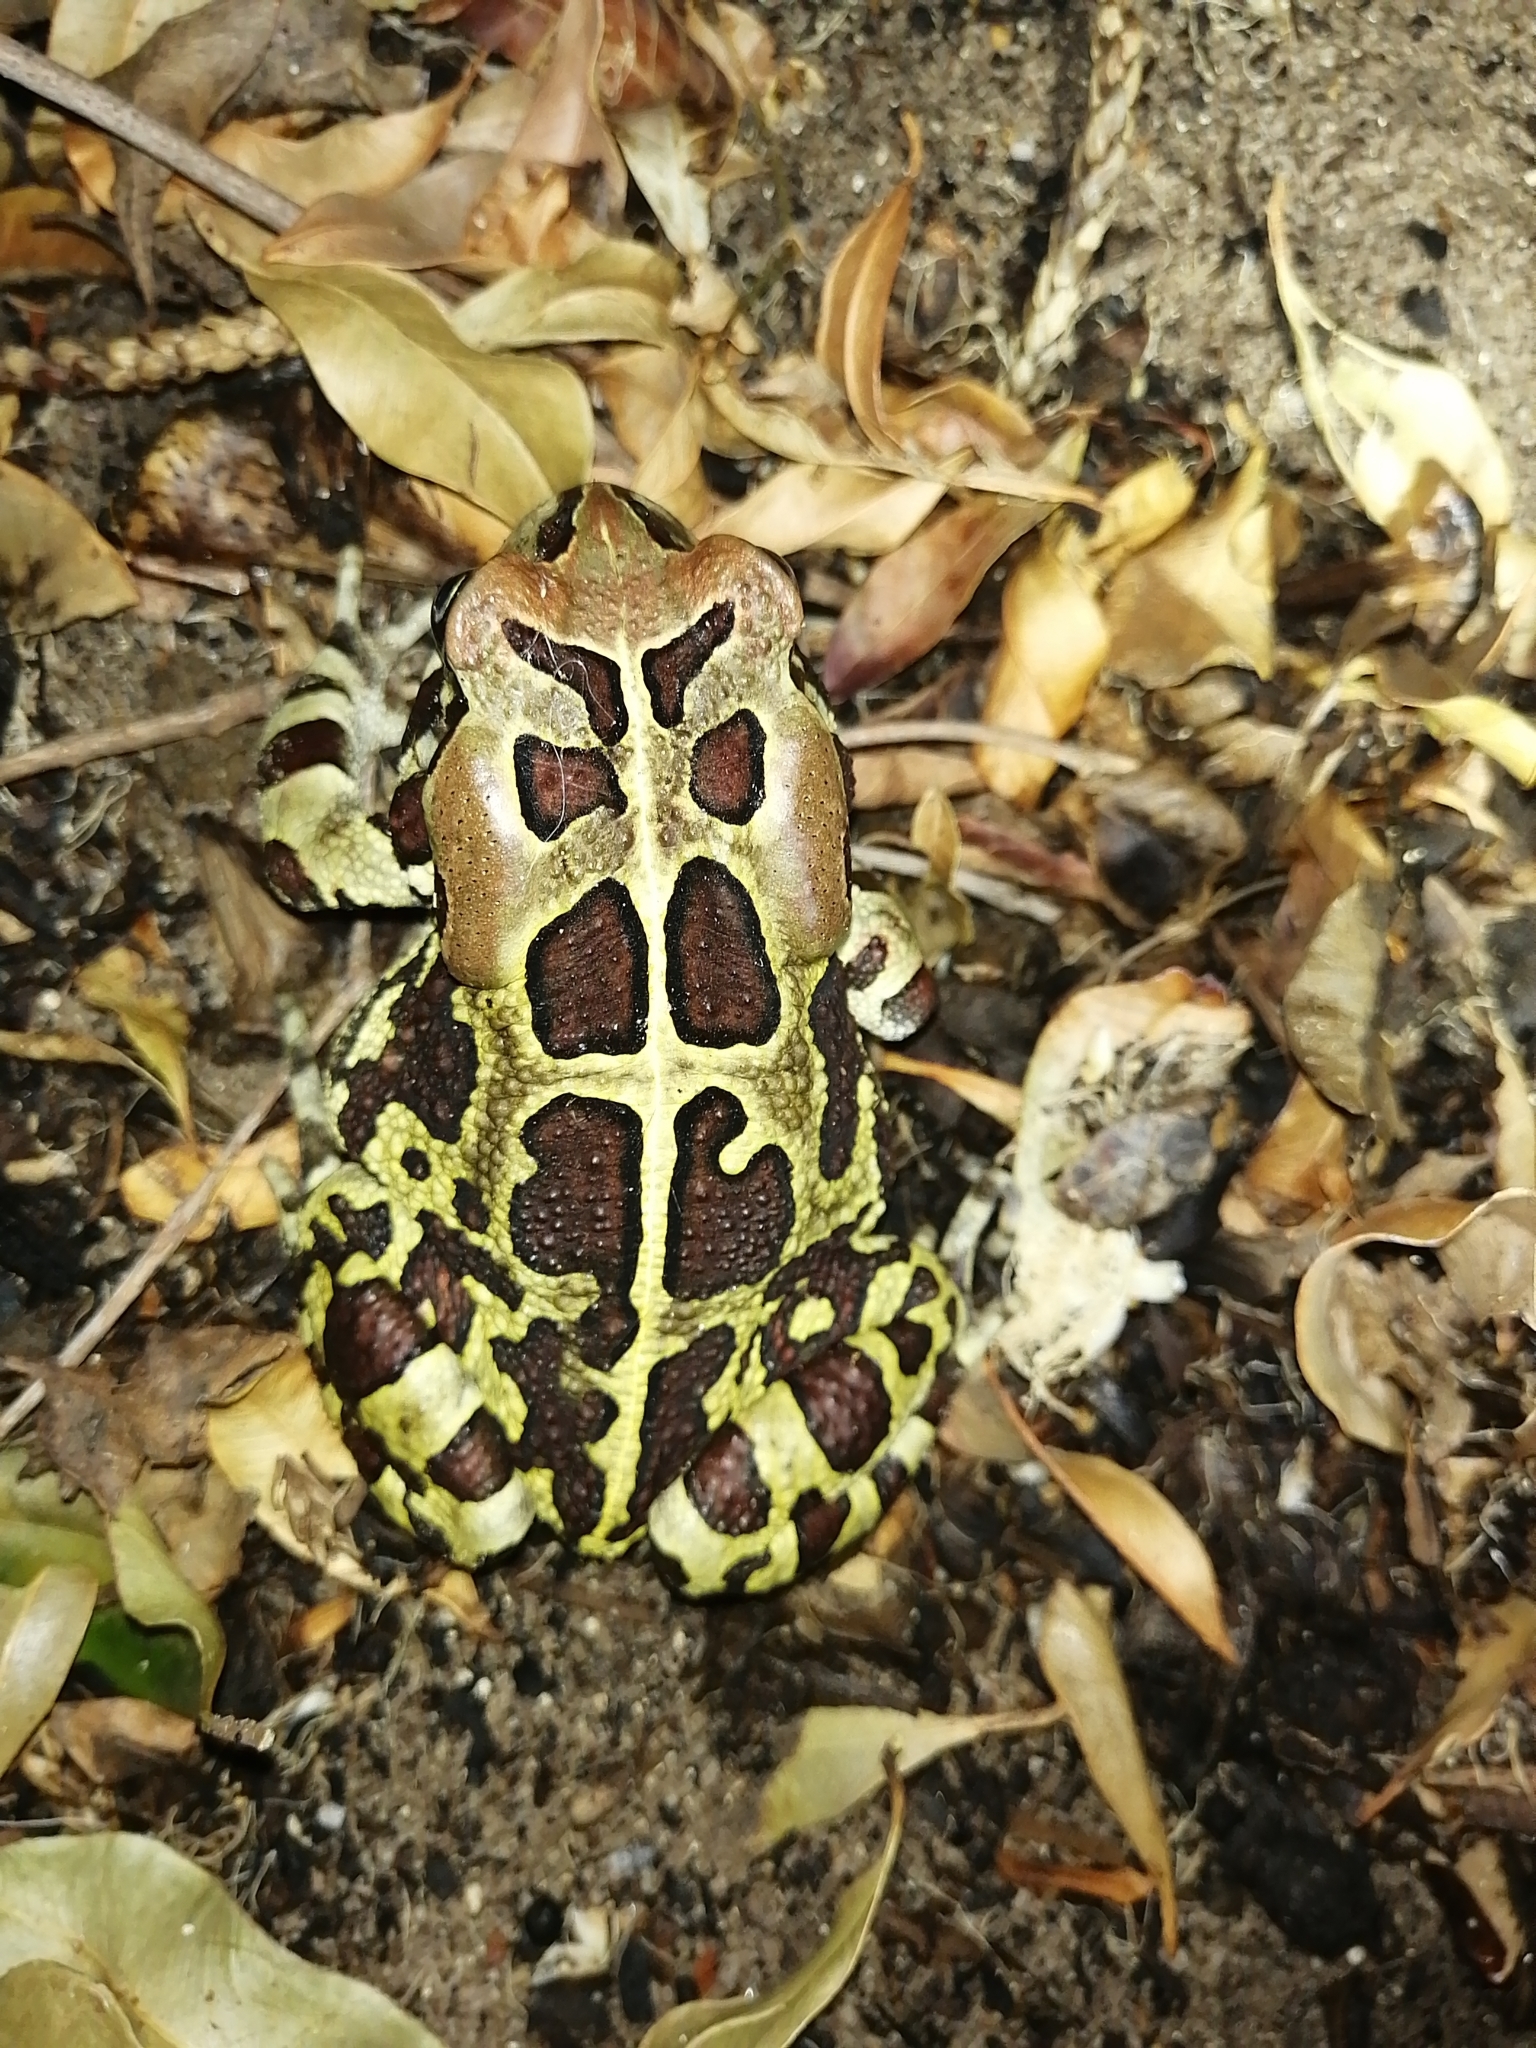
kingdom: Animalia
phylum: Chordata
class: Amphibia
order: Anura
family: Bufonidae
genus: Sclerophrys
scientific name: Sclerophrys pantherina
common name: Panther toad
